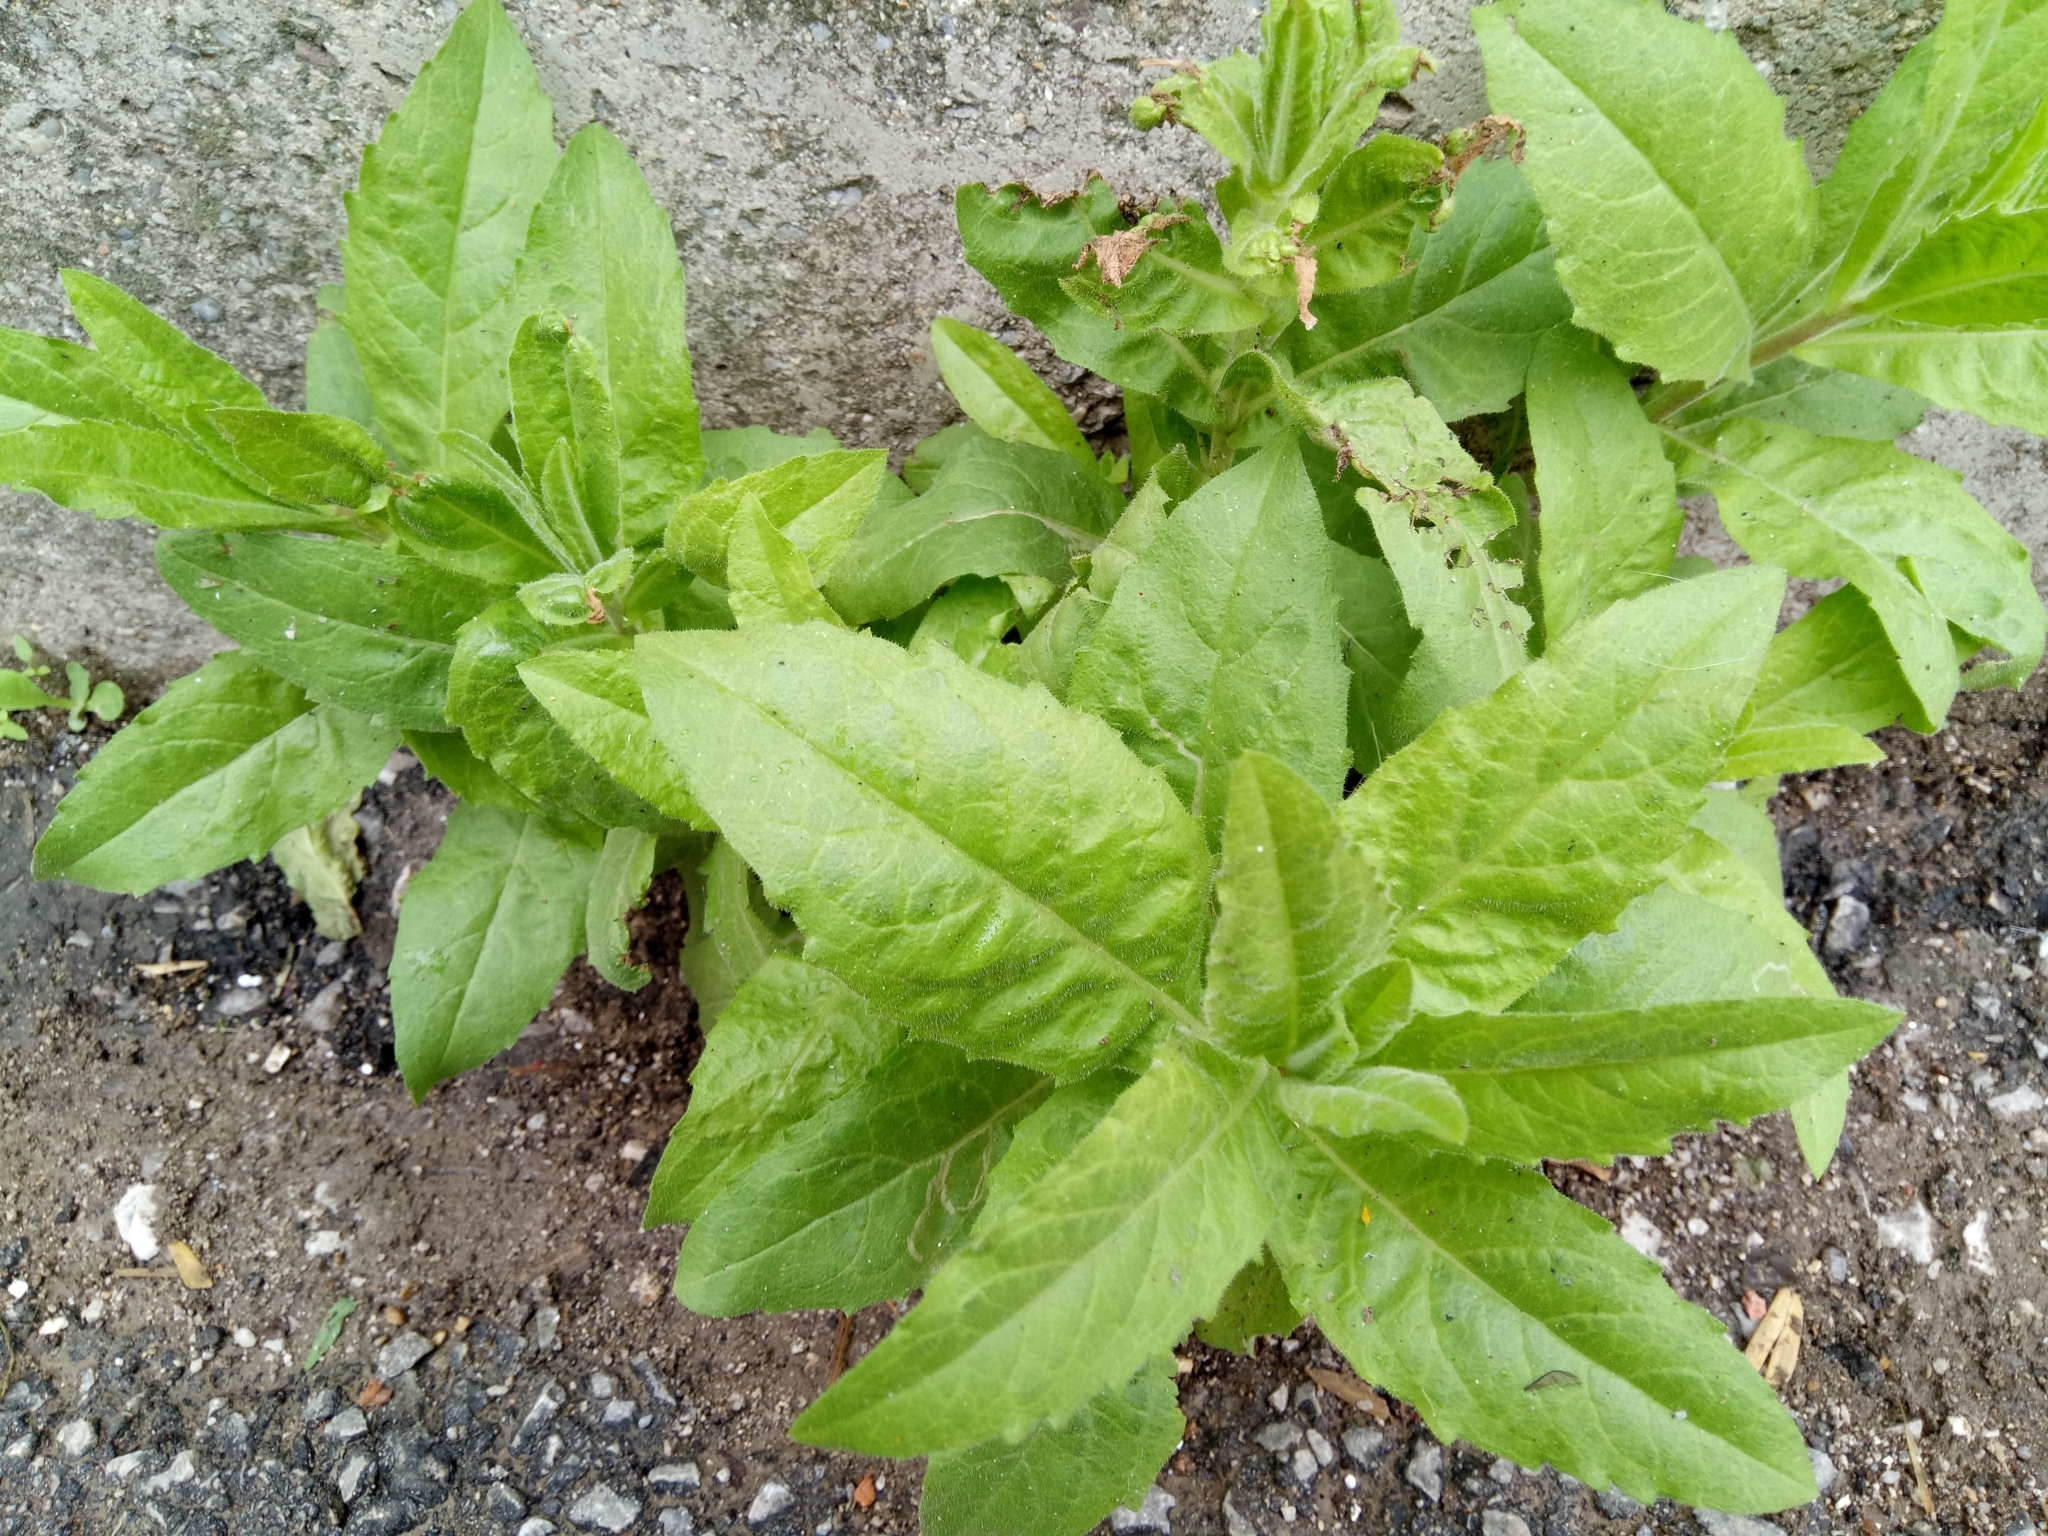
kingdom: Plantae
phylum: Tracheophyta
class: Magnoliopsida
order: Asterales
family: Asteraceae
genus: Dittrichia
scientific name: Dittrichia viscosa
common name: Woody fleabane
